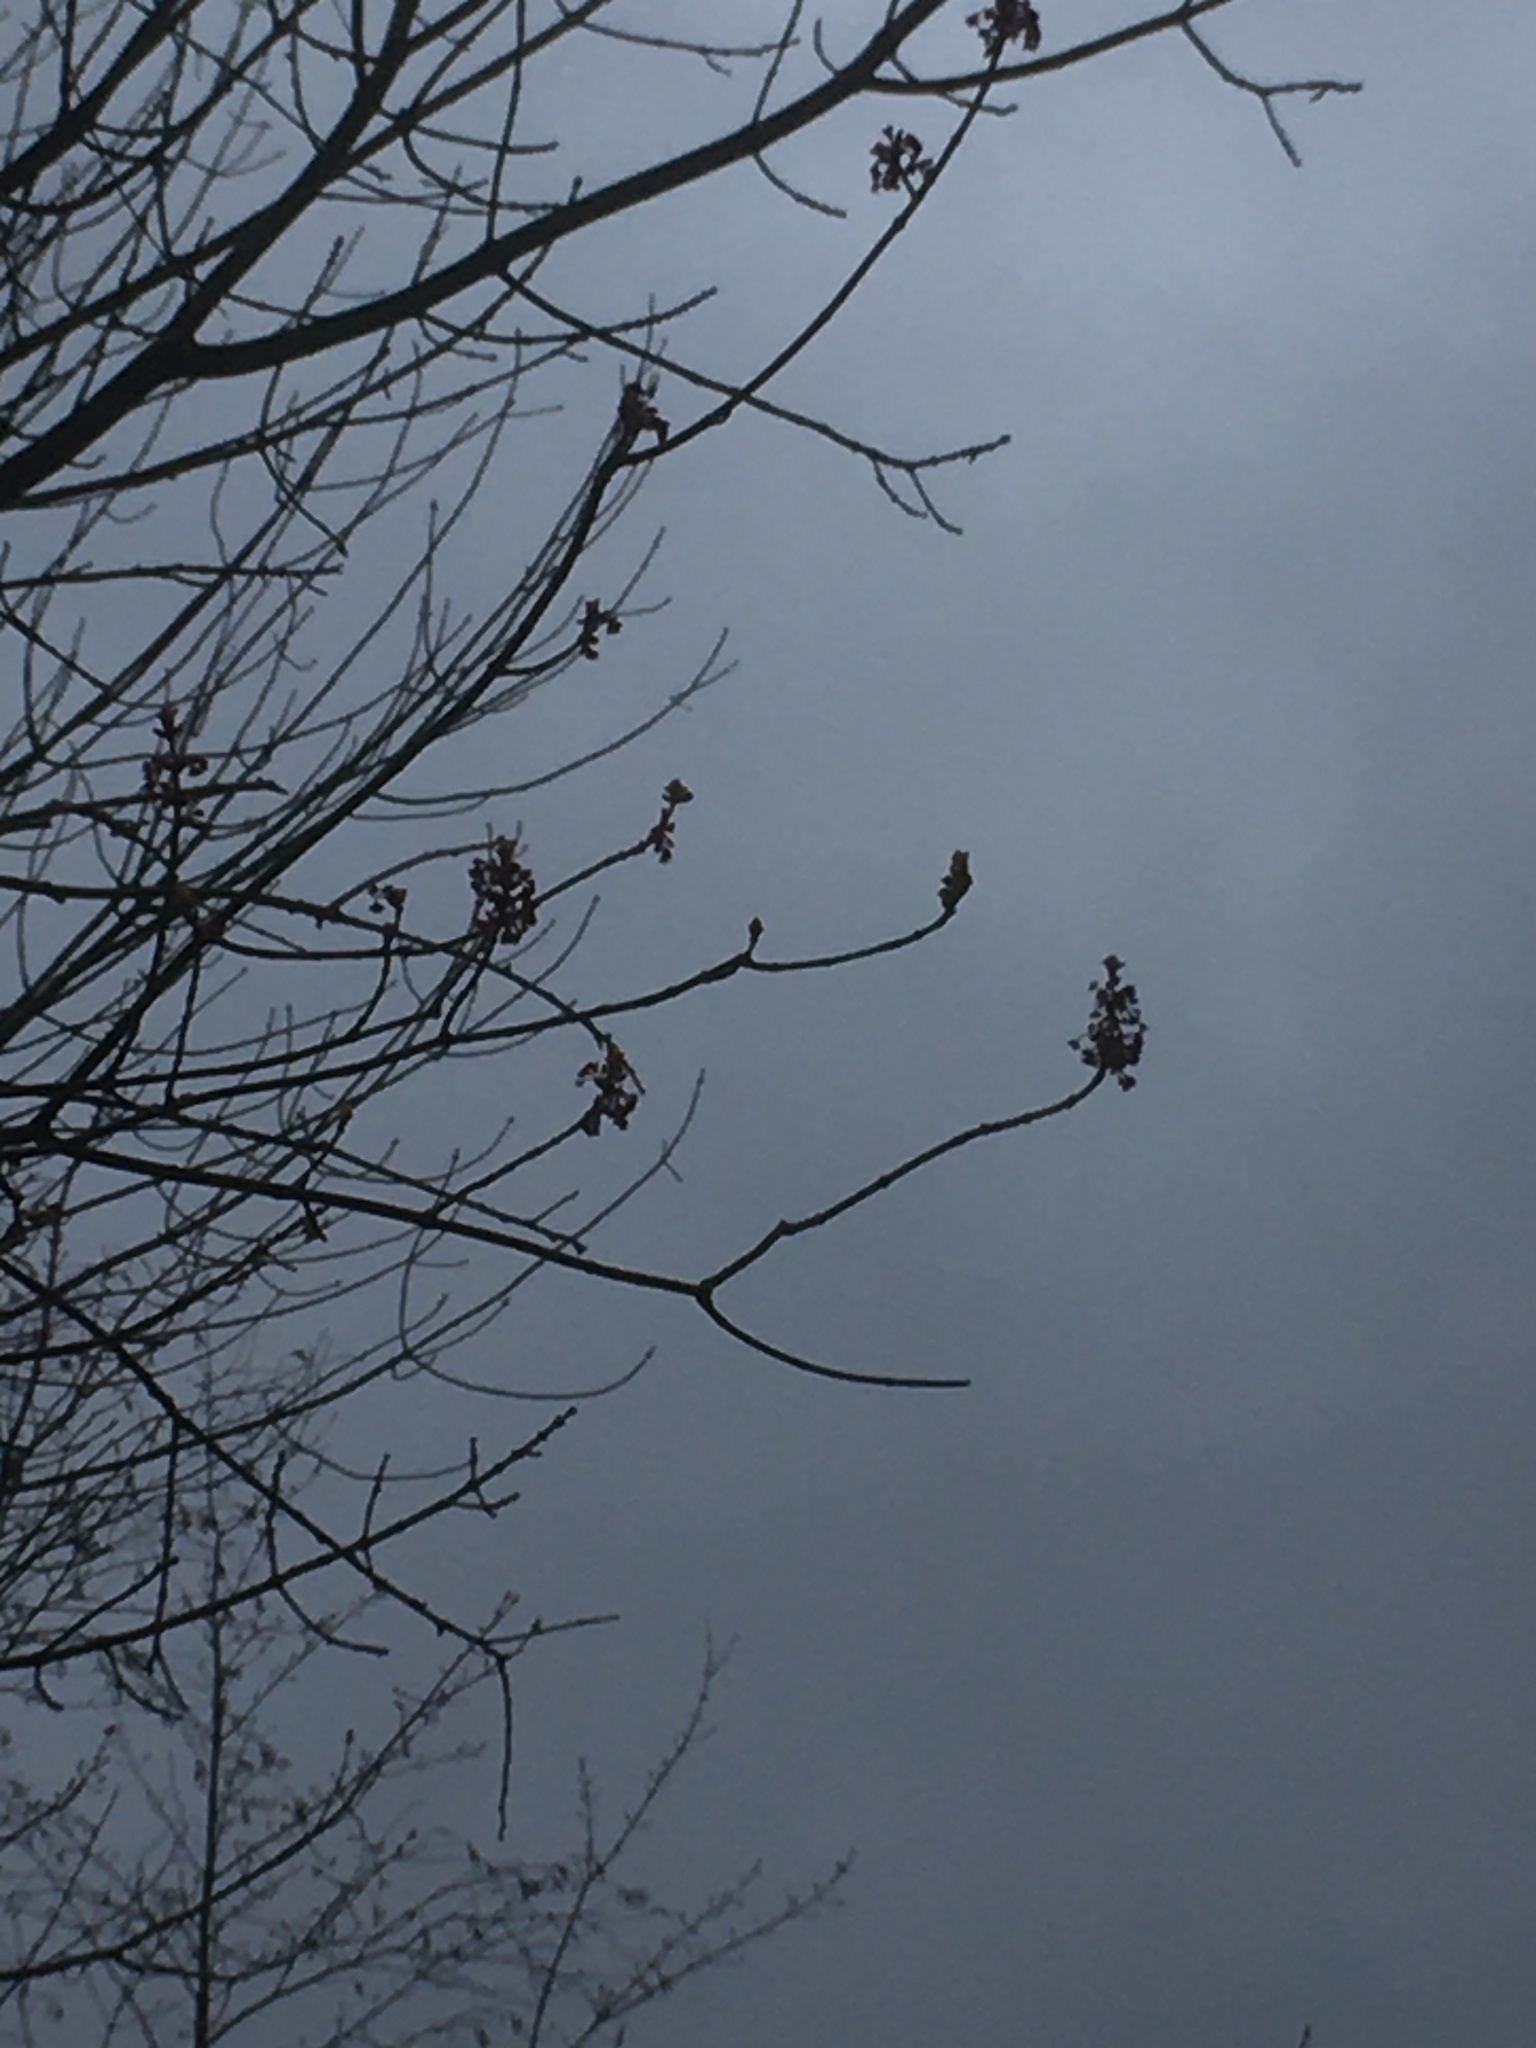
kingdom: Plantae
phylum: Tracheophyta
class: Magnoliopsida
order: Sapindales
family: Sapindaceae
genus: Acer
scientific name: Acer rubrum
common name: Red maple
